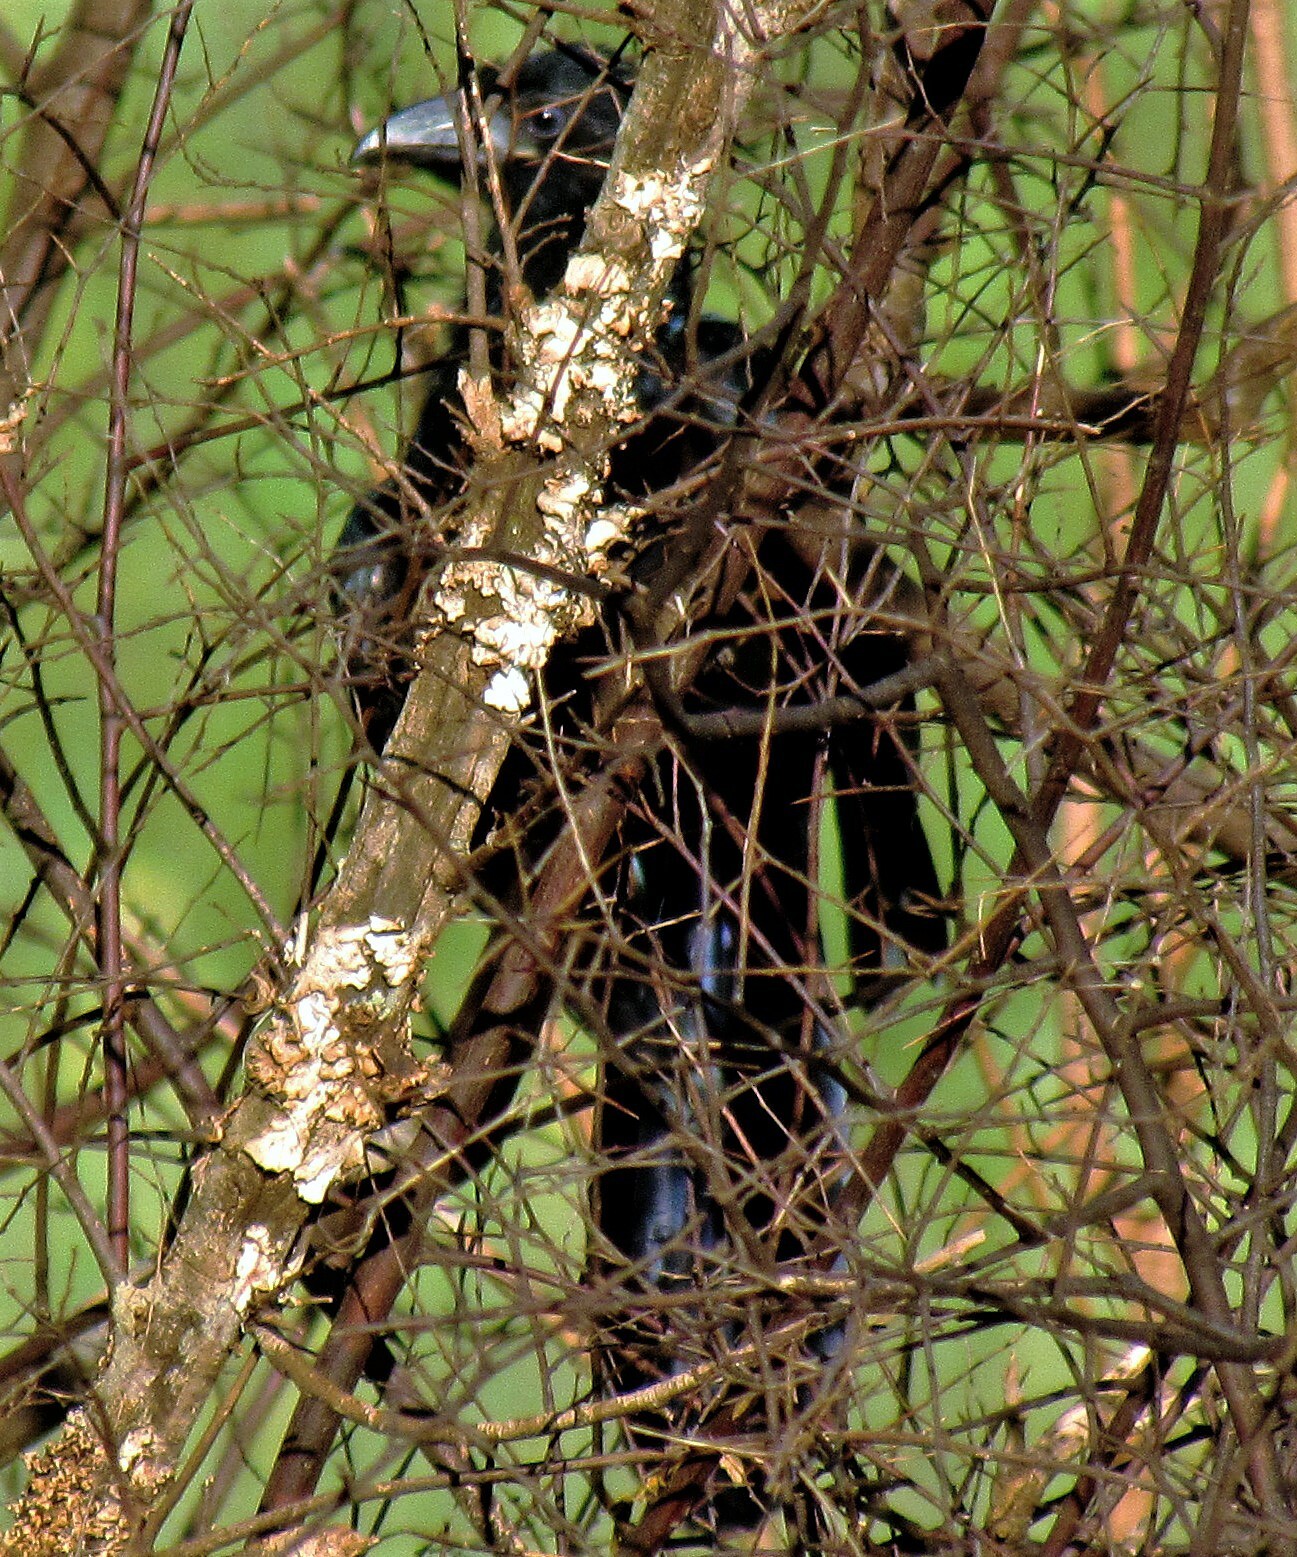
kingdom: Animalia
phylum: Chordata
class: Aves
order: Cuculiformes
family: Cuculidae
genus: Crotophaga
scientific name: Crotophaga major
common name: Greater ani
